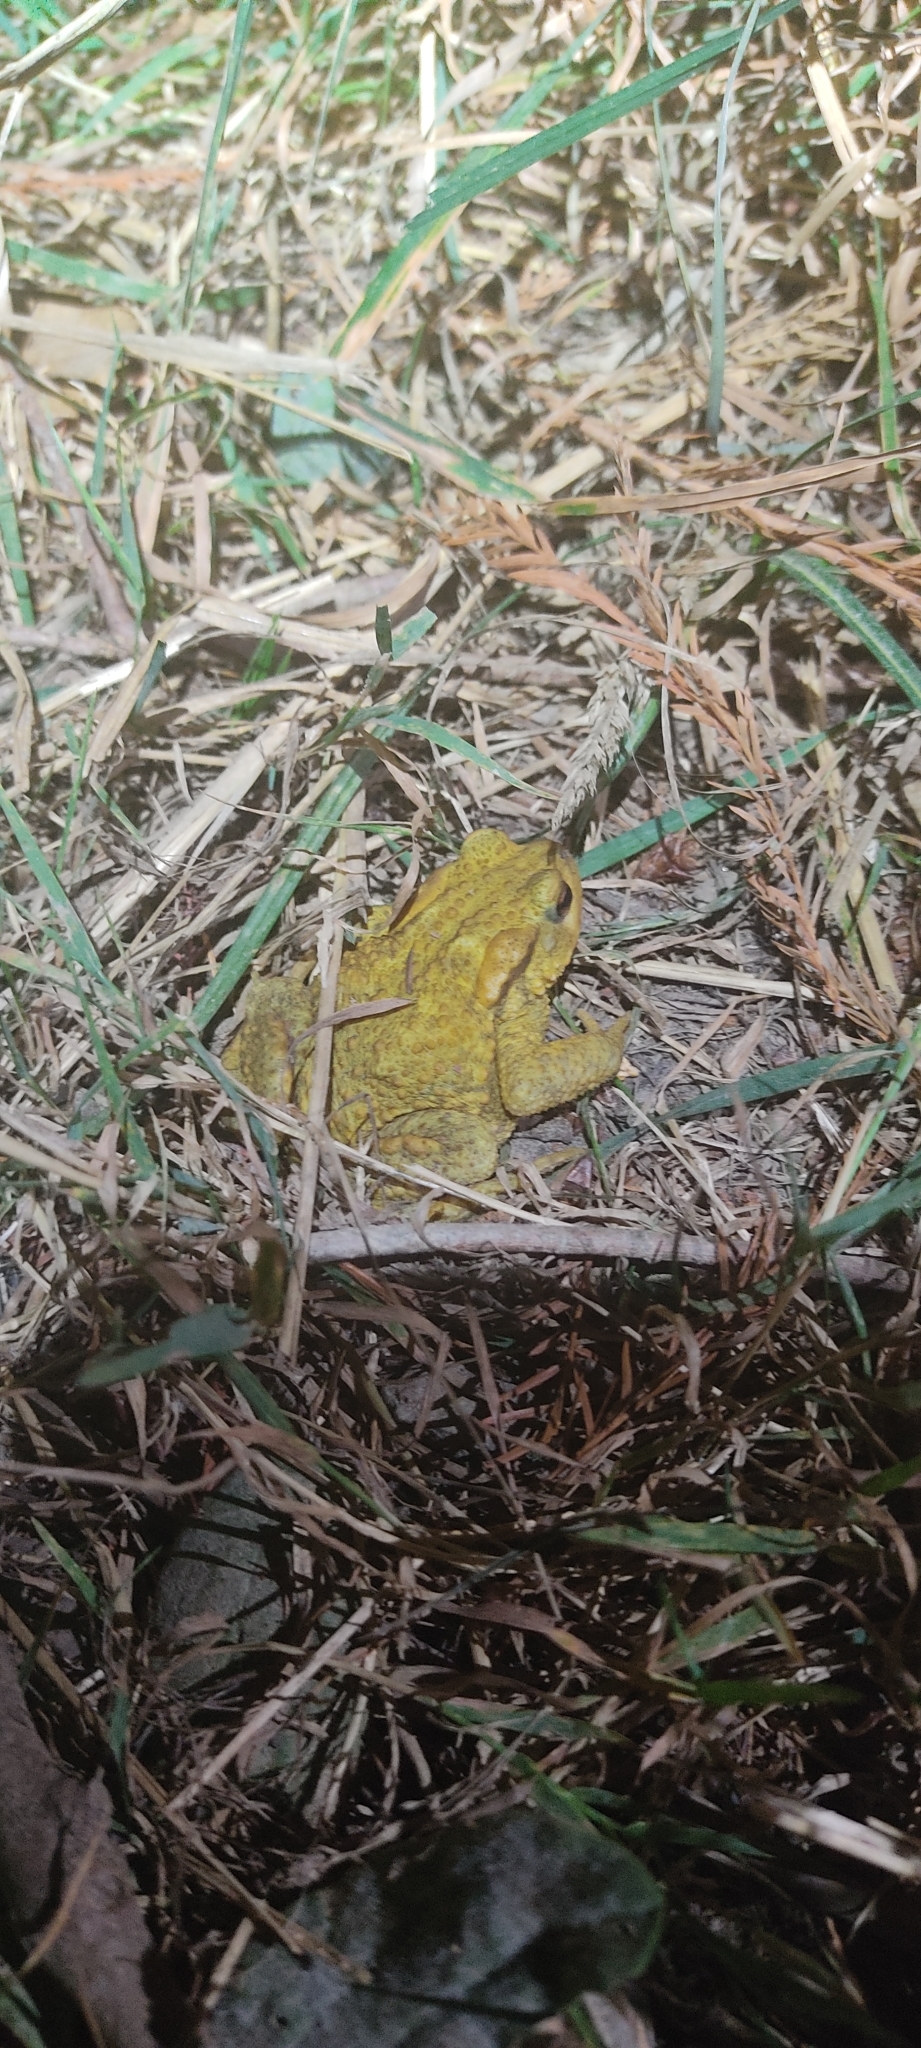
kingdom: Animalia
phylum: Chordata
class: Amphibia
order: Anura
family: Bufonidae
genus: Bufo
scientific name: Bufo spinosus
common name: Western common toad
